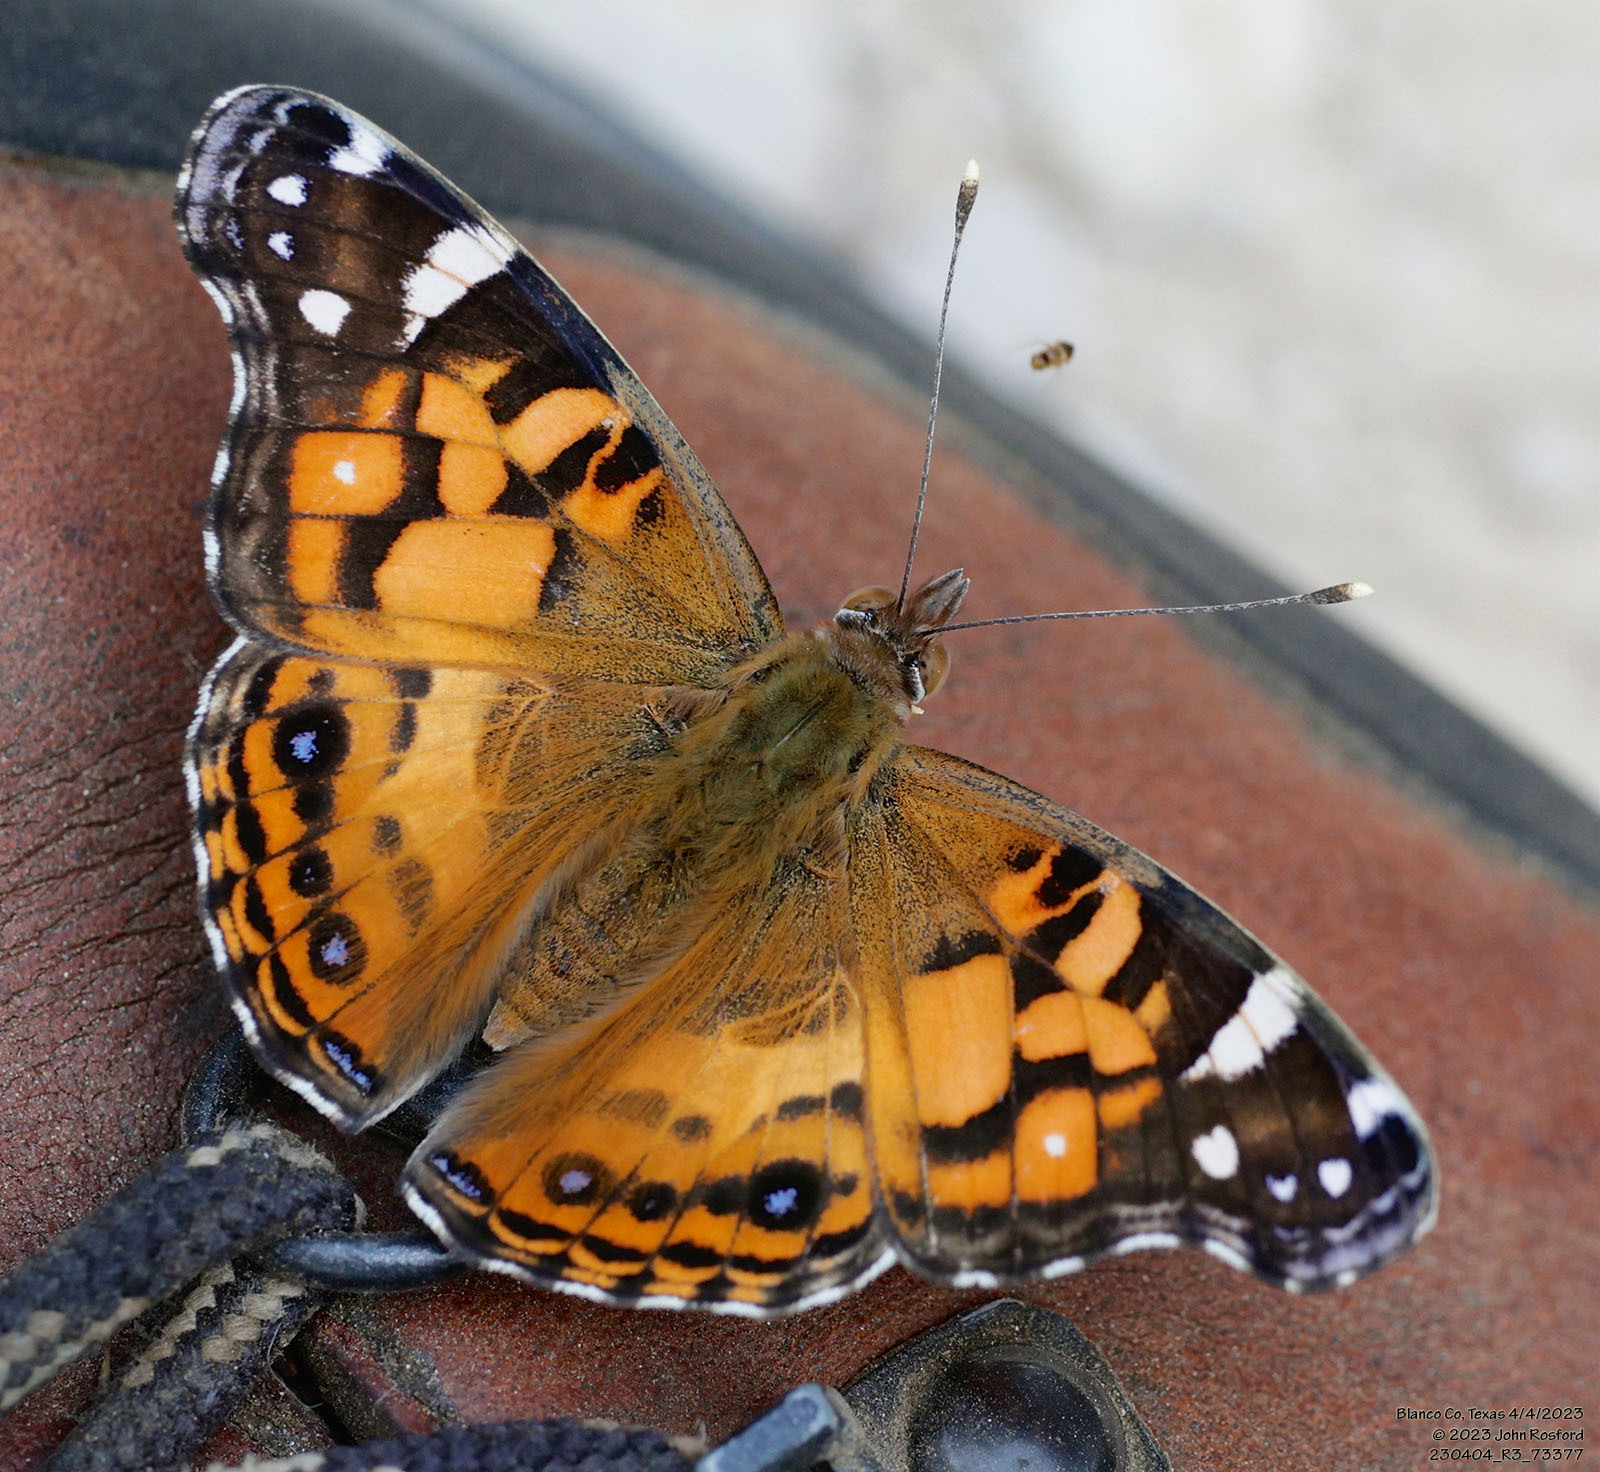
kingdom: Animalia
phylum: Arthropoda
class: Insecta
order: Lepidoptera
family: Nymphalidae
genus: Vanessa
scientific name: Vanessa virginiensis
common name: American lady
